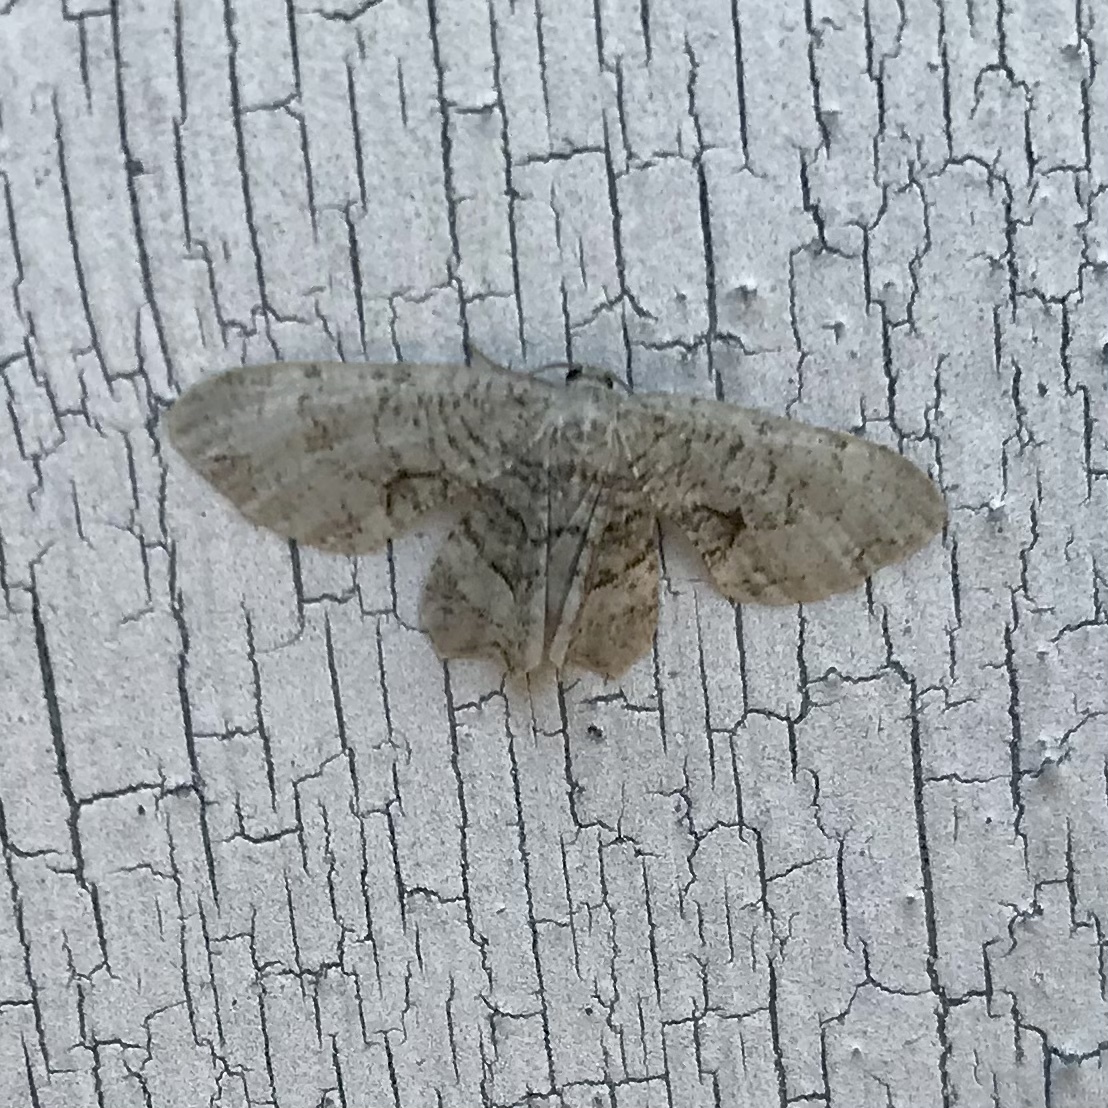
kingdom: Animalia
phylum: Arthropoda
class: Insecta
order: Lepidoptera
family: Uraniidae
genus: Epiplema
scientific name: Epiplema Callizzia amorata
